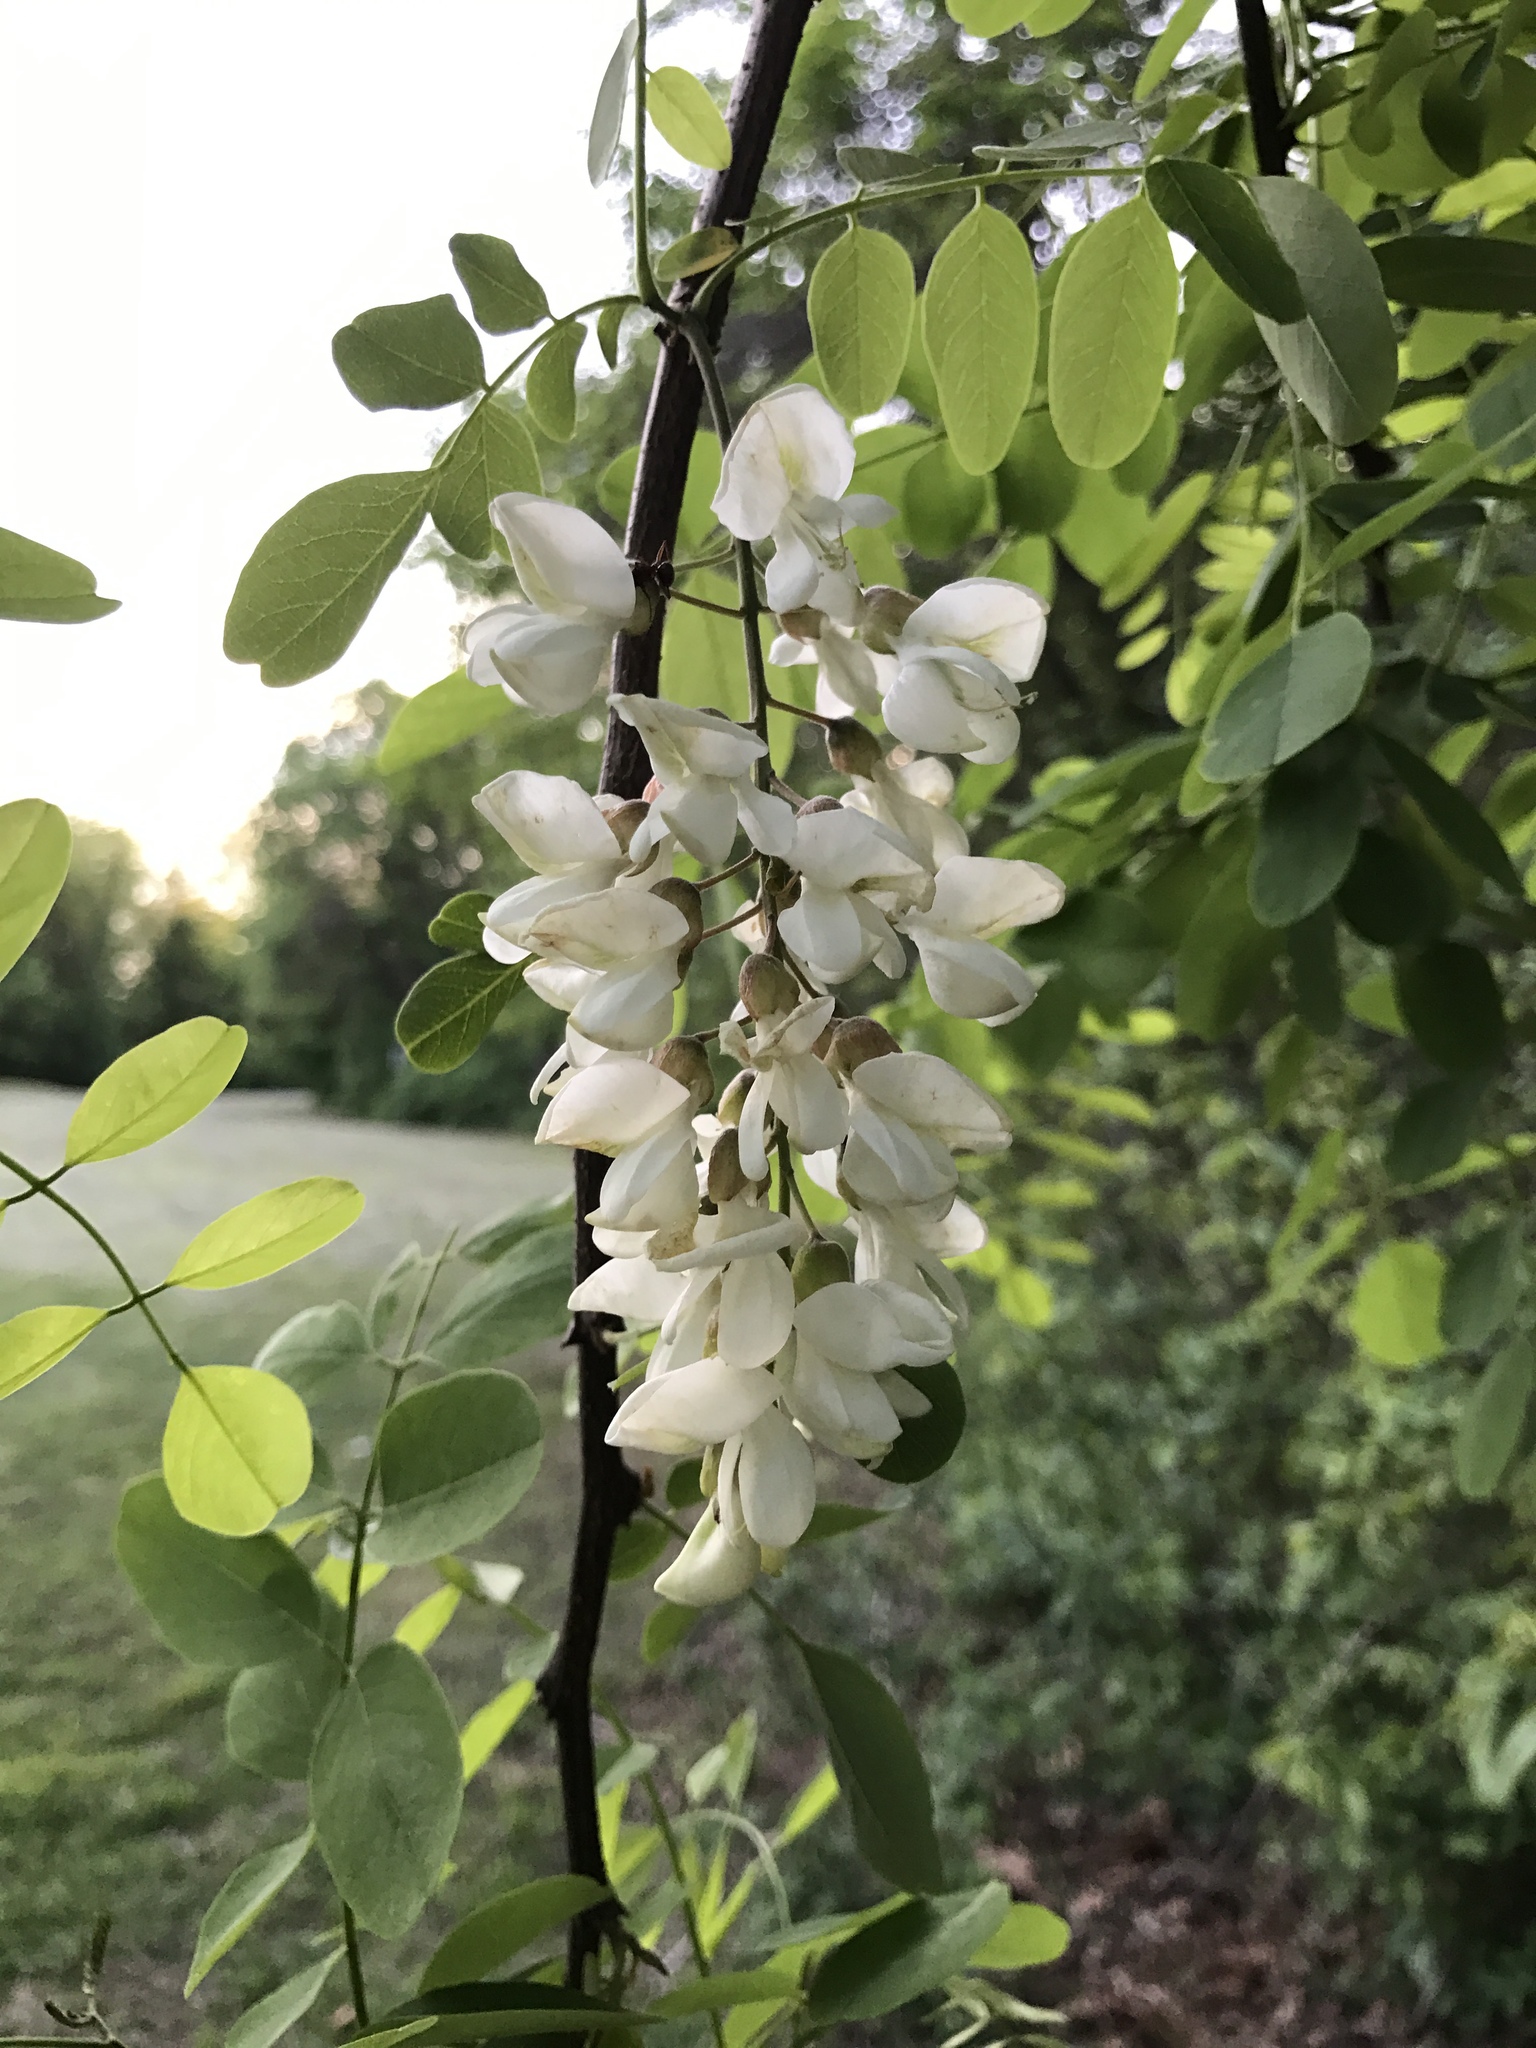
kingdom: Plantae
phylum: Tracheophyta
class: Magnoliopsida
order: Fabales
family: Fabaceae
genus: Robinia
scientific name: Robinia pseudoacacia
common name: Black locust
